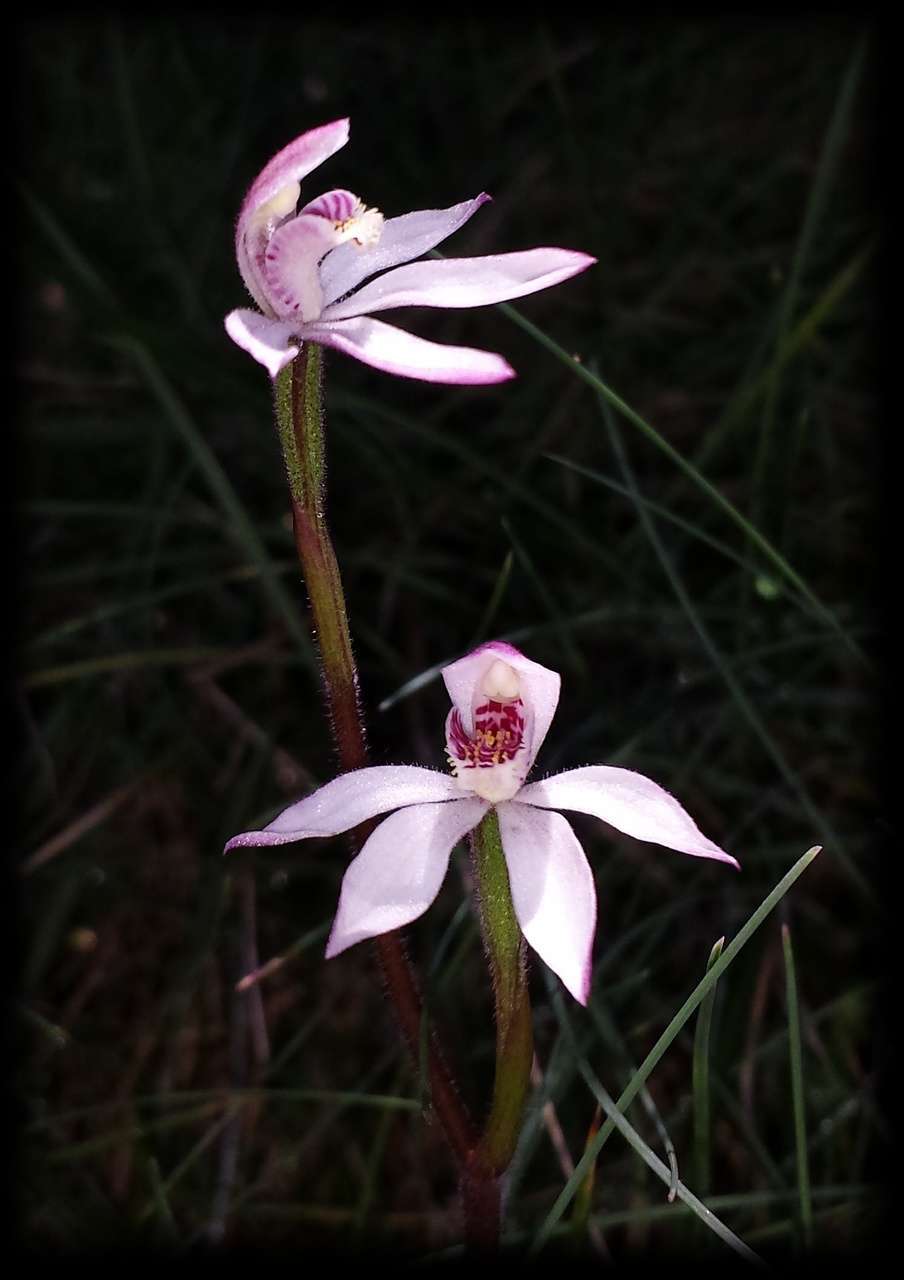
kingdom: Plantae
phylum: Tracheophyta
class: Liliopsida
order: Asparagales
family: Orchidaceae
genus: Caladenia
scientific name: Caladenia alpina
